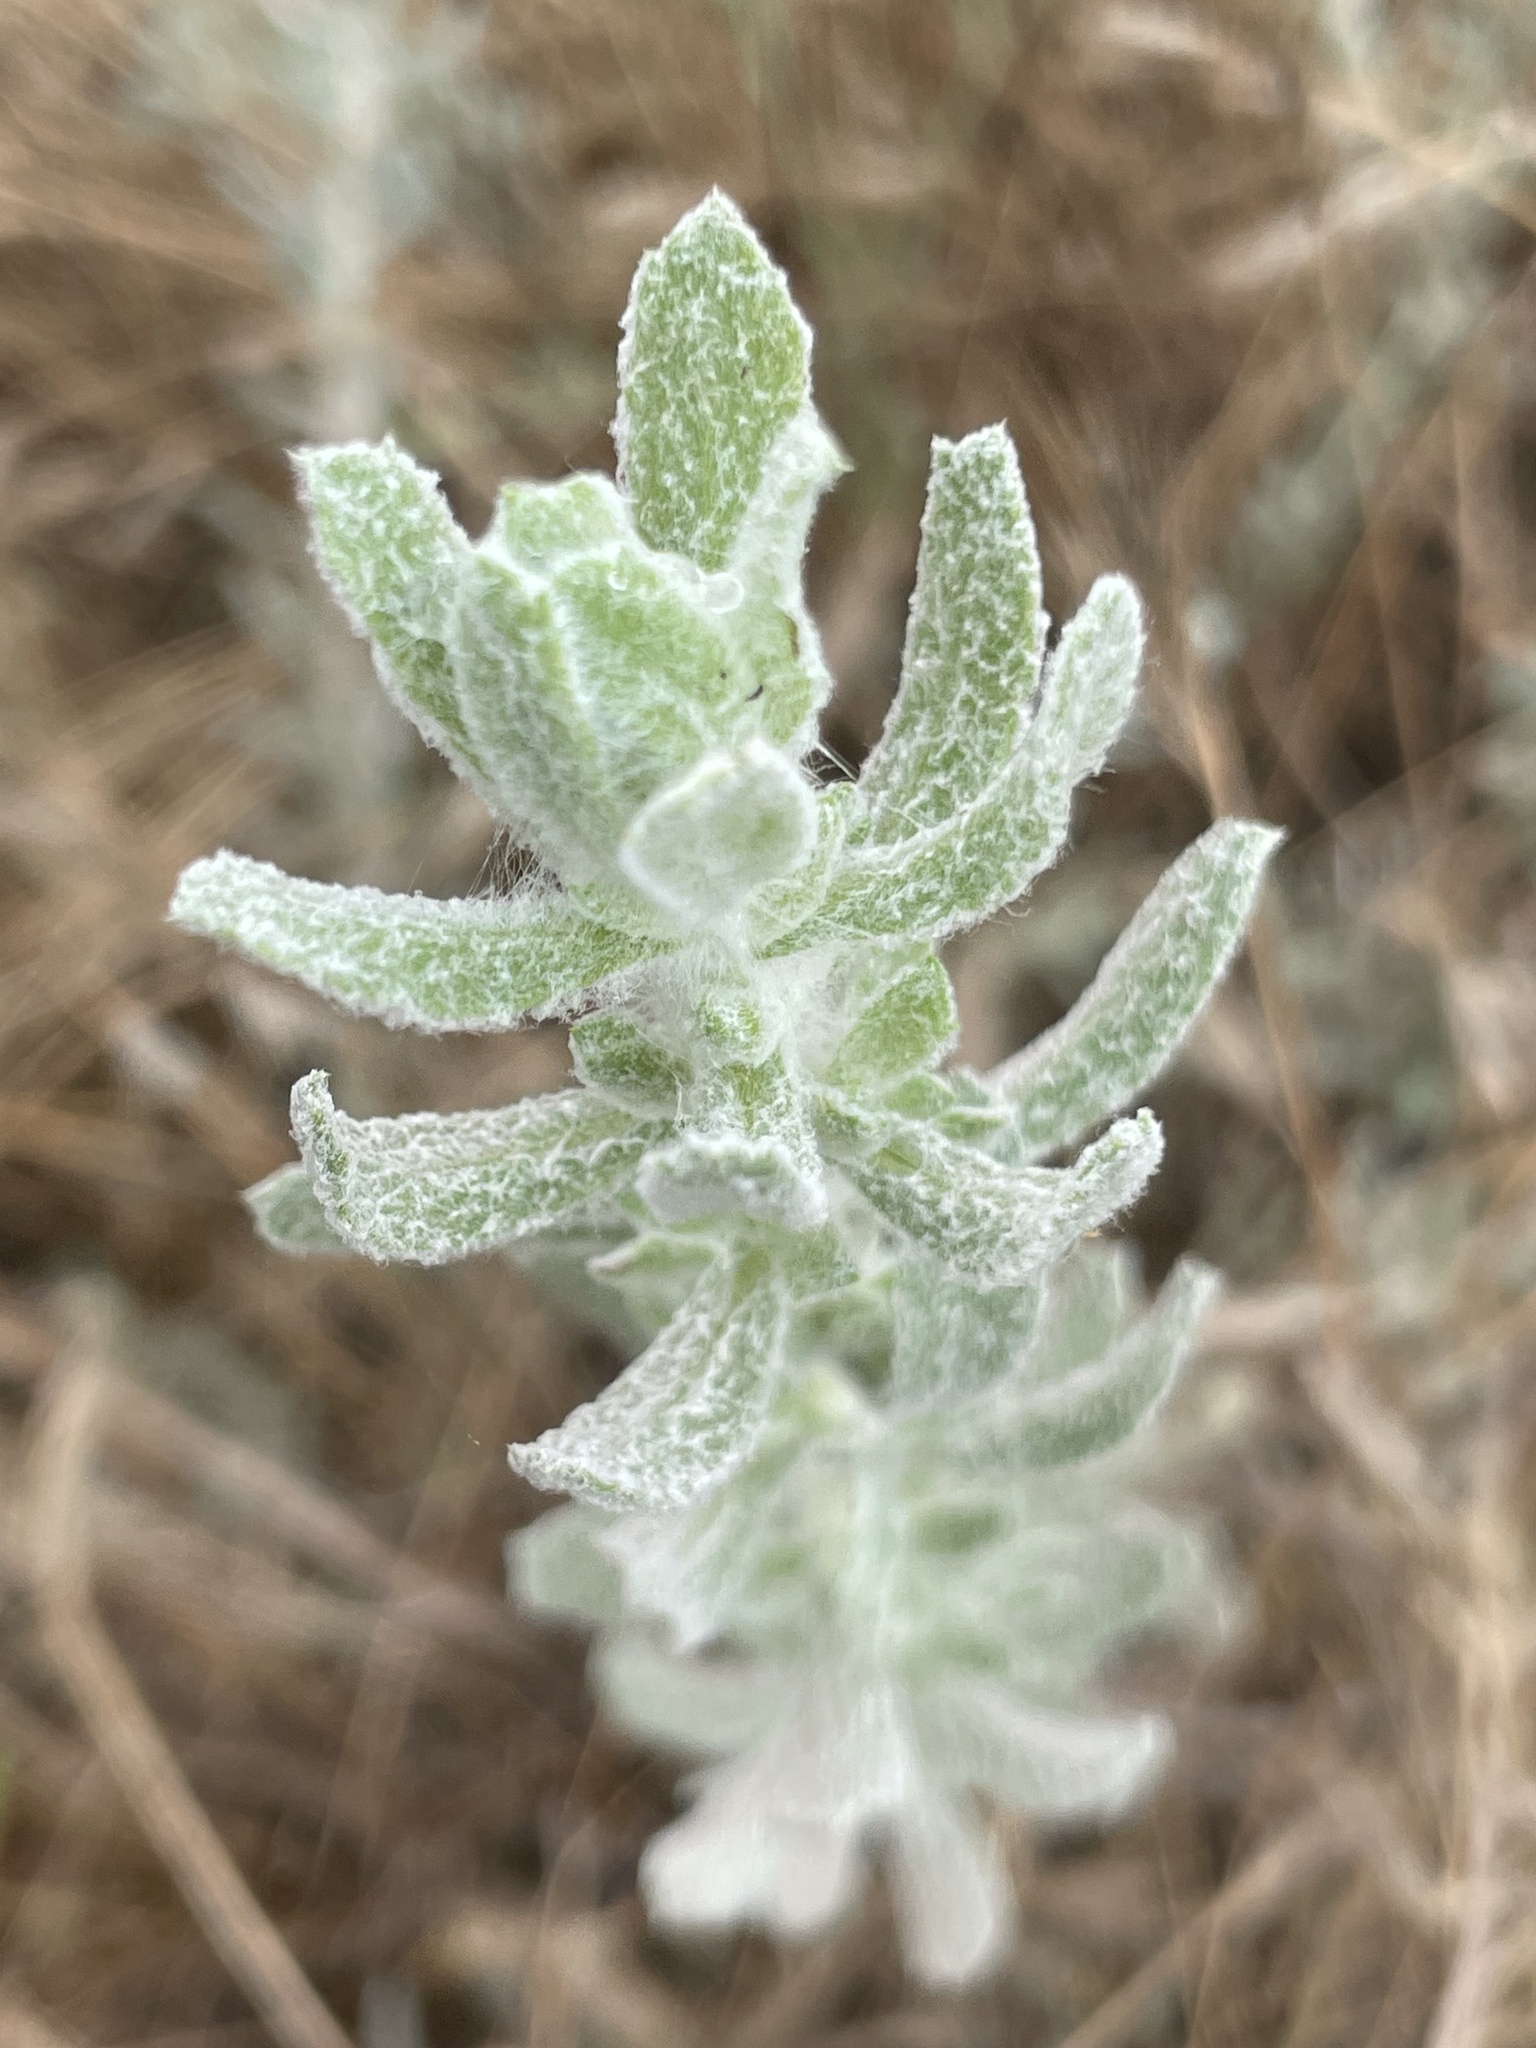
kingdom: Plantae
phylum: Tracheophyta
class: Magnoliopsida
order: Asterales
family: Asteraceae
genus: Isocoma
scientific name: Isocoma menziesii
